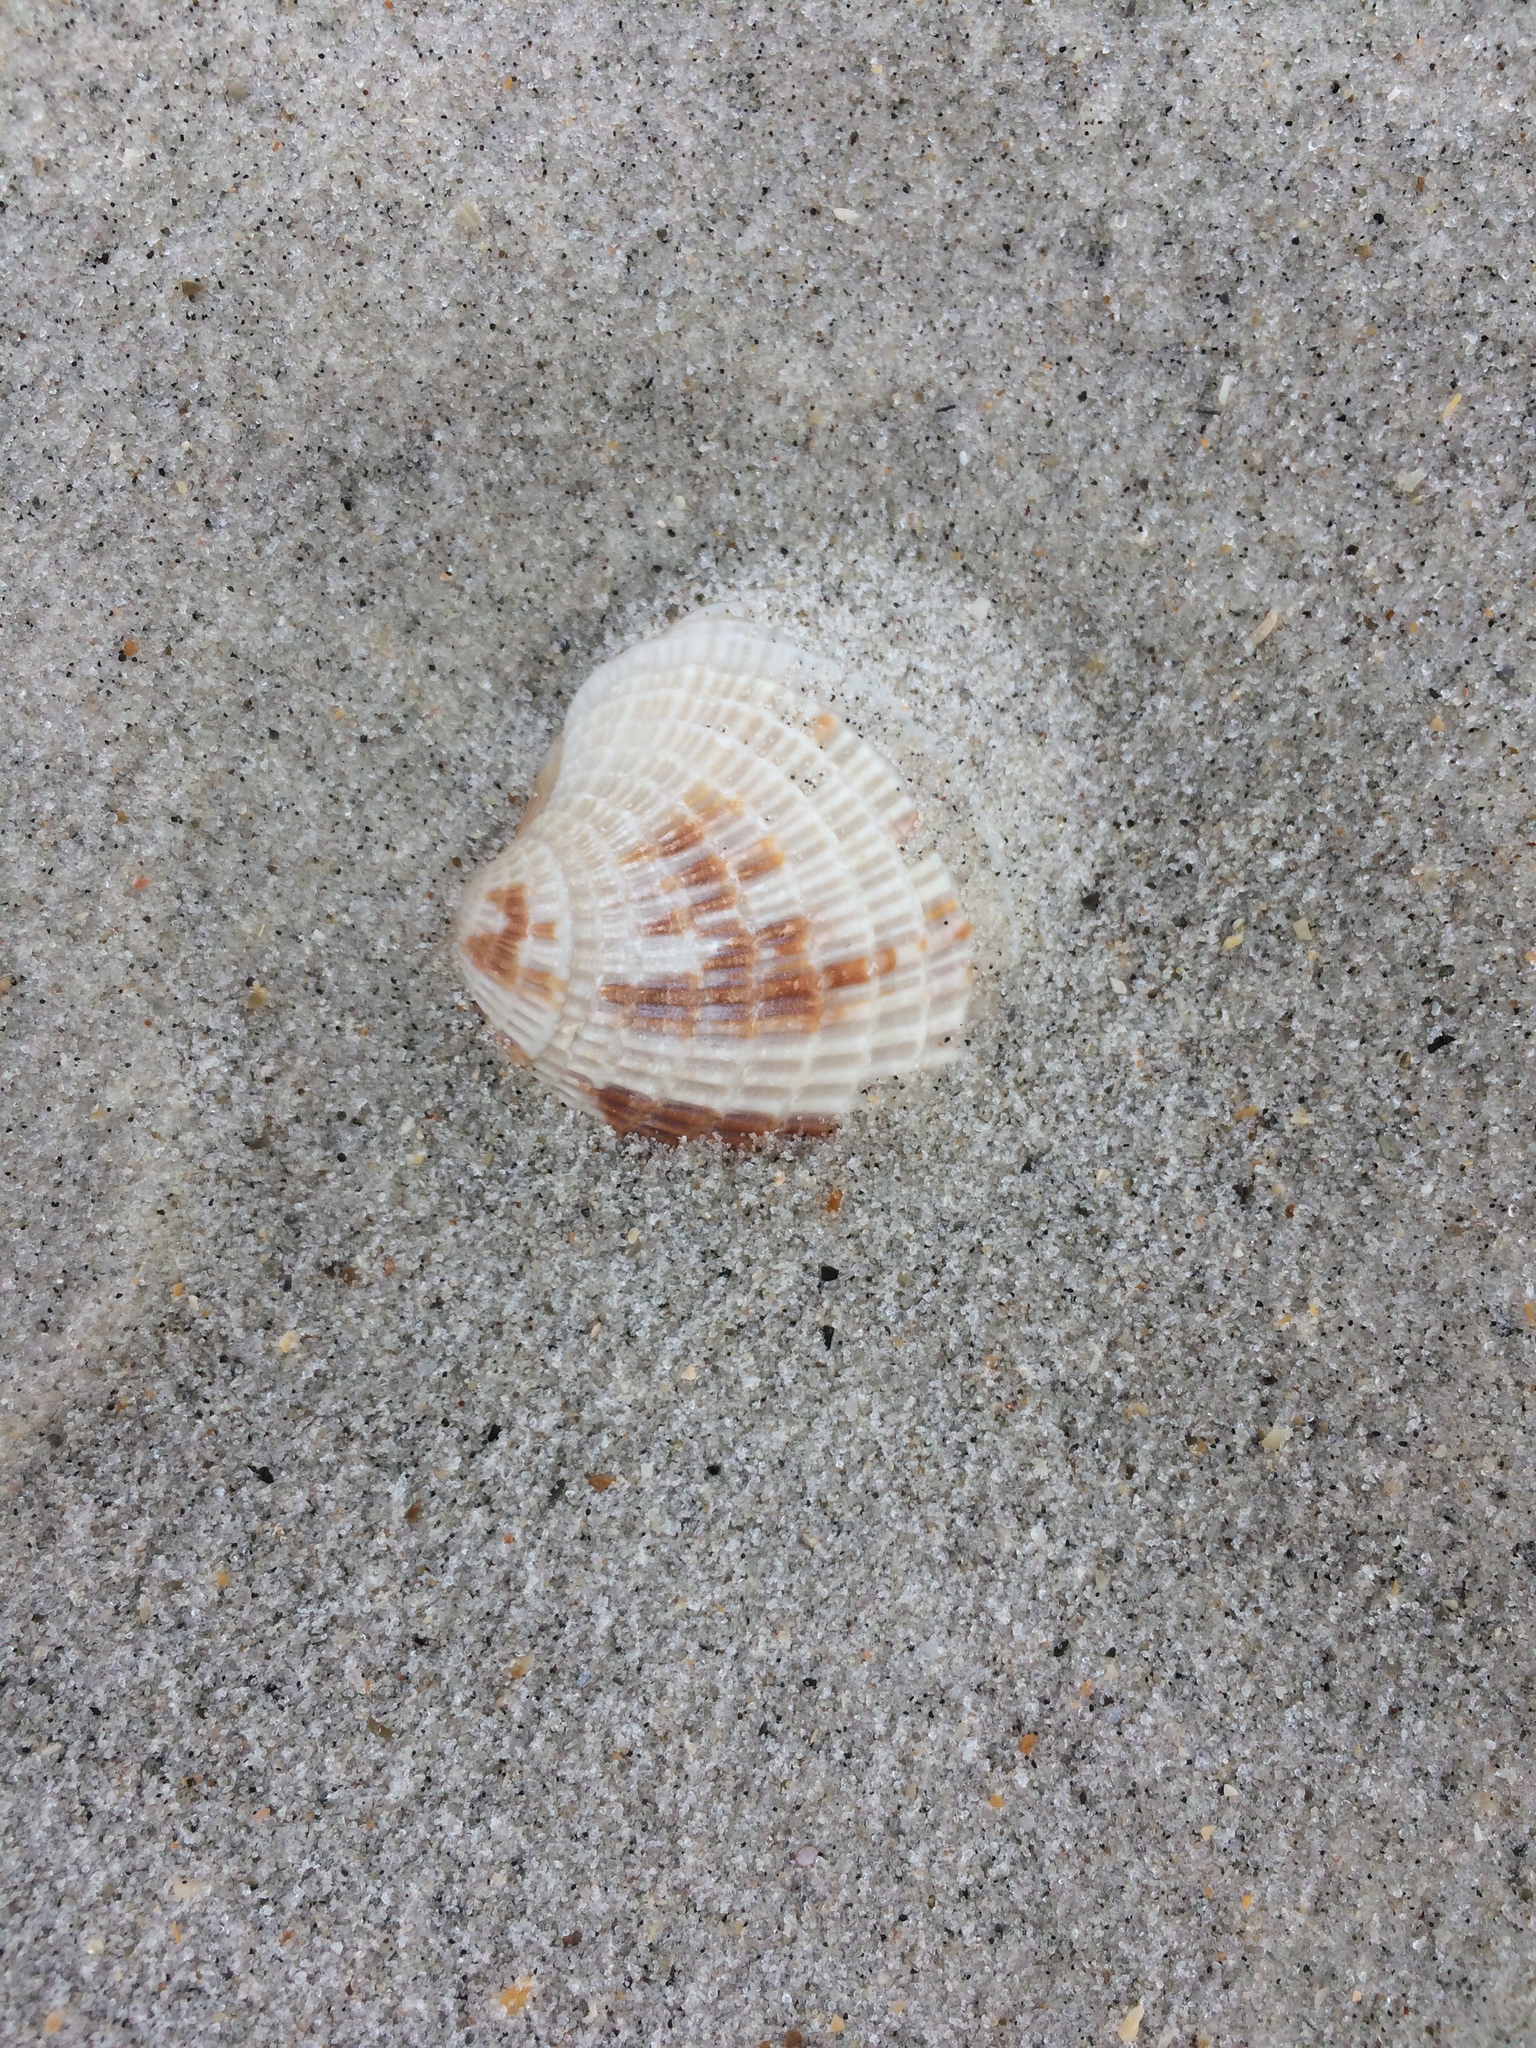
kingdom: Animalia
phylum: Mollusca
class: Bivalvia
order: Venerida
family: Veneridae
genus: Chione
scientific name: Chione elevata
